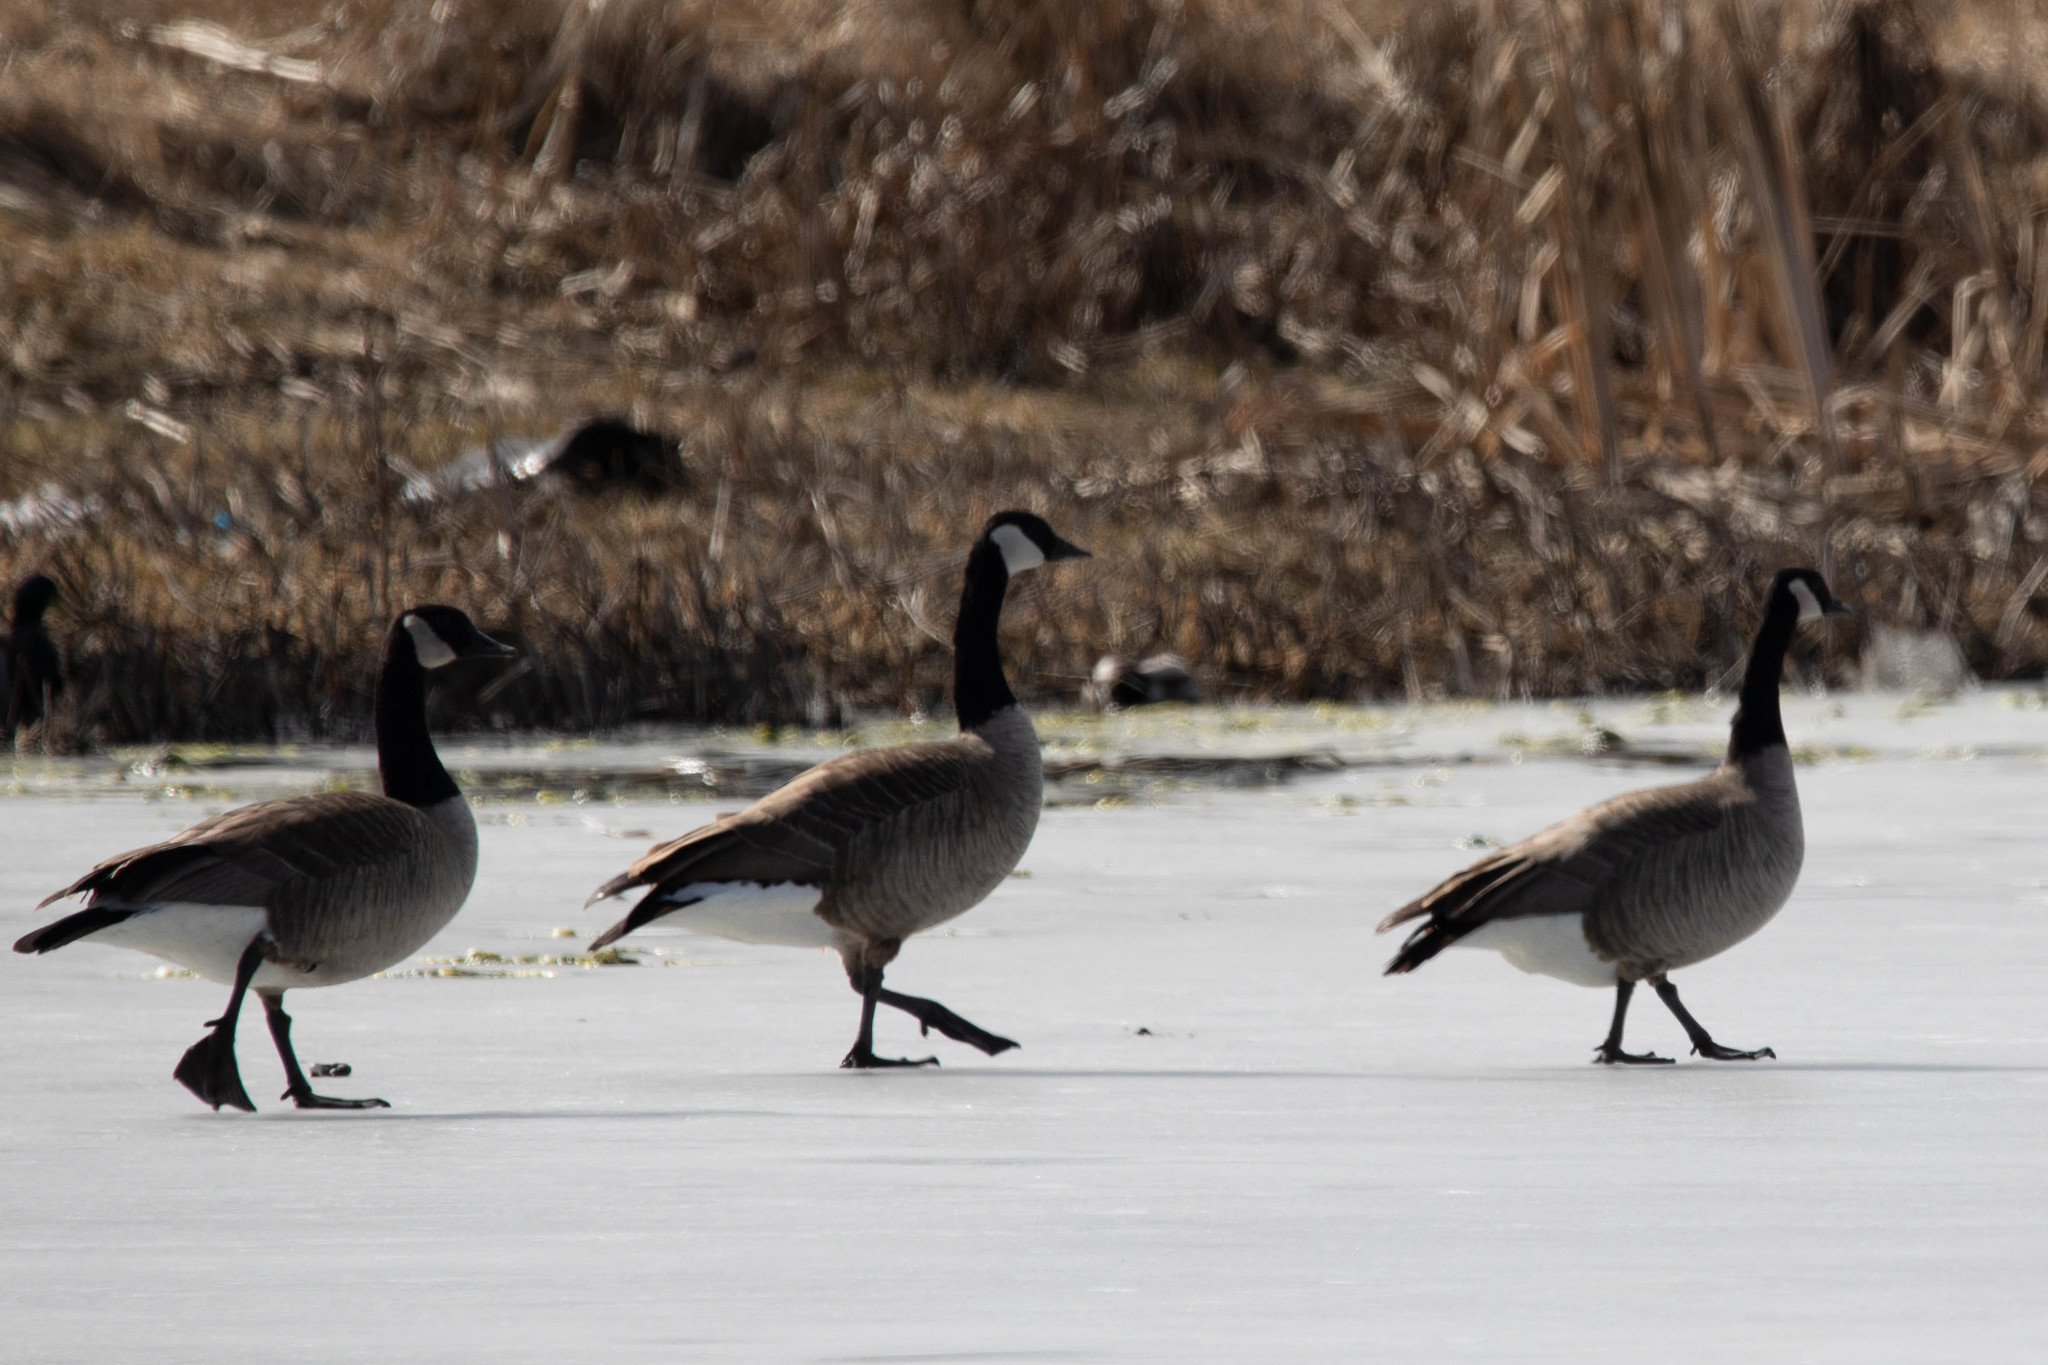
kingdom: Animalia
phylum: Chordata
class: Aves
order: Anseriformes
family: Anatidae
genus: Branta
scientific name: Branta canadensis
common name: Canada goose
